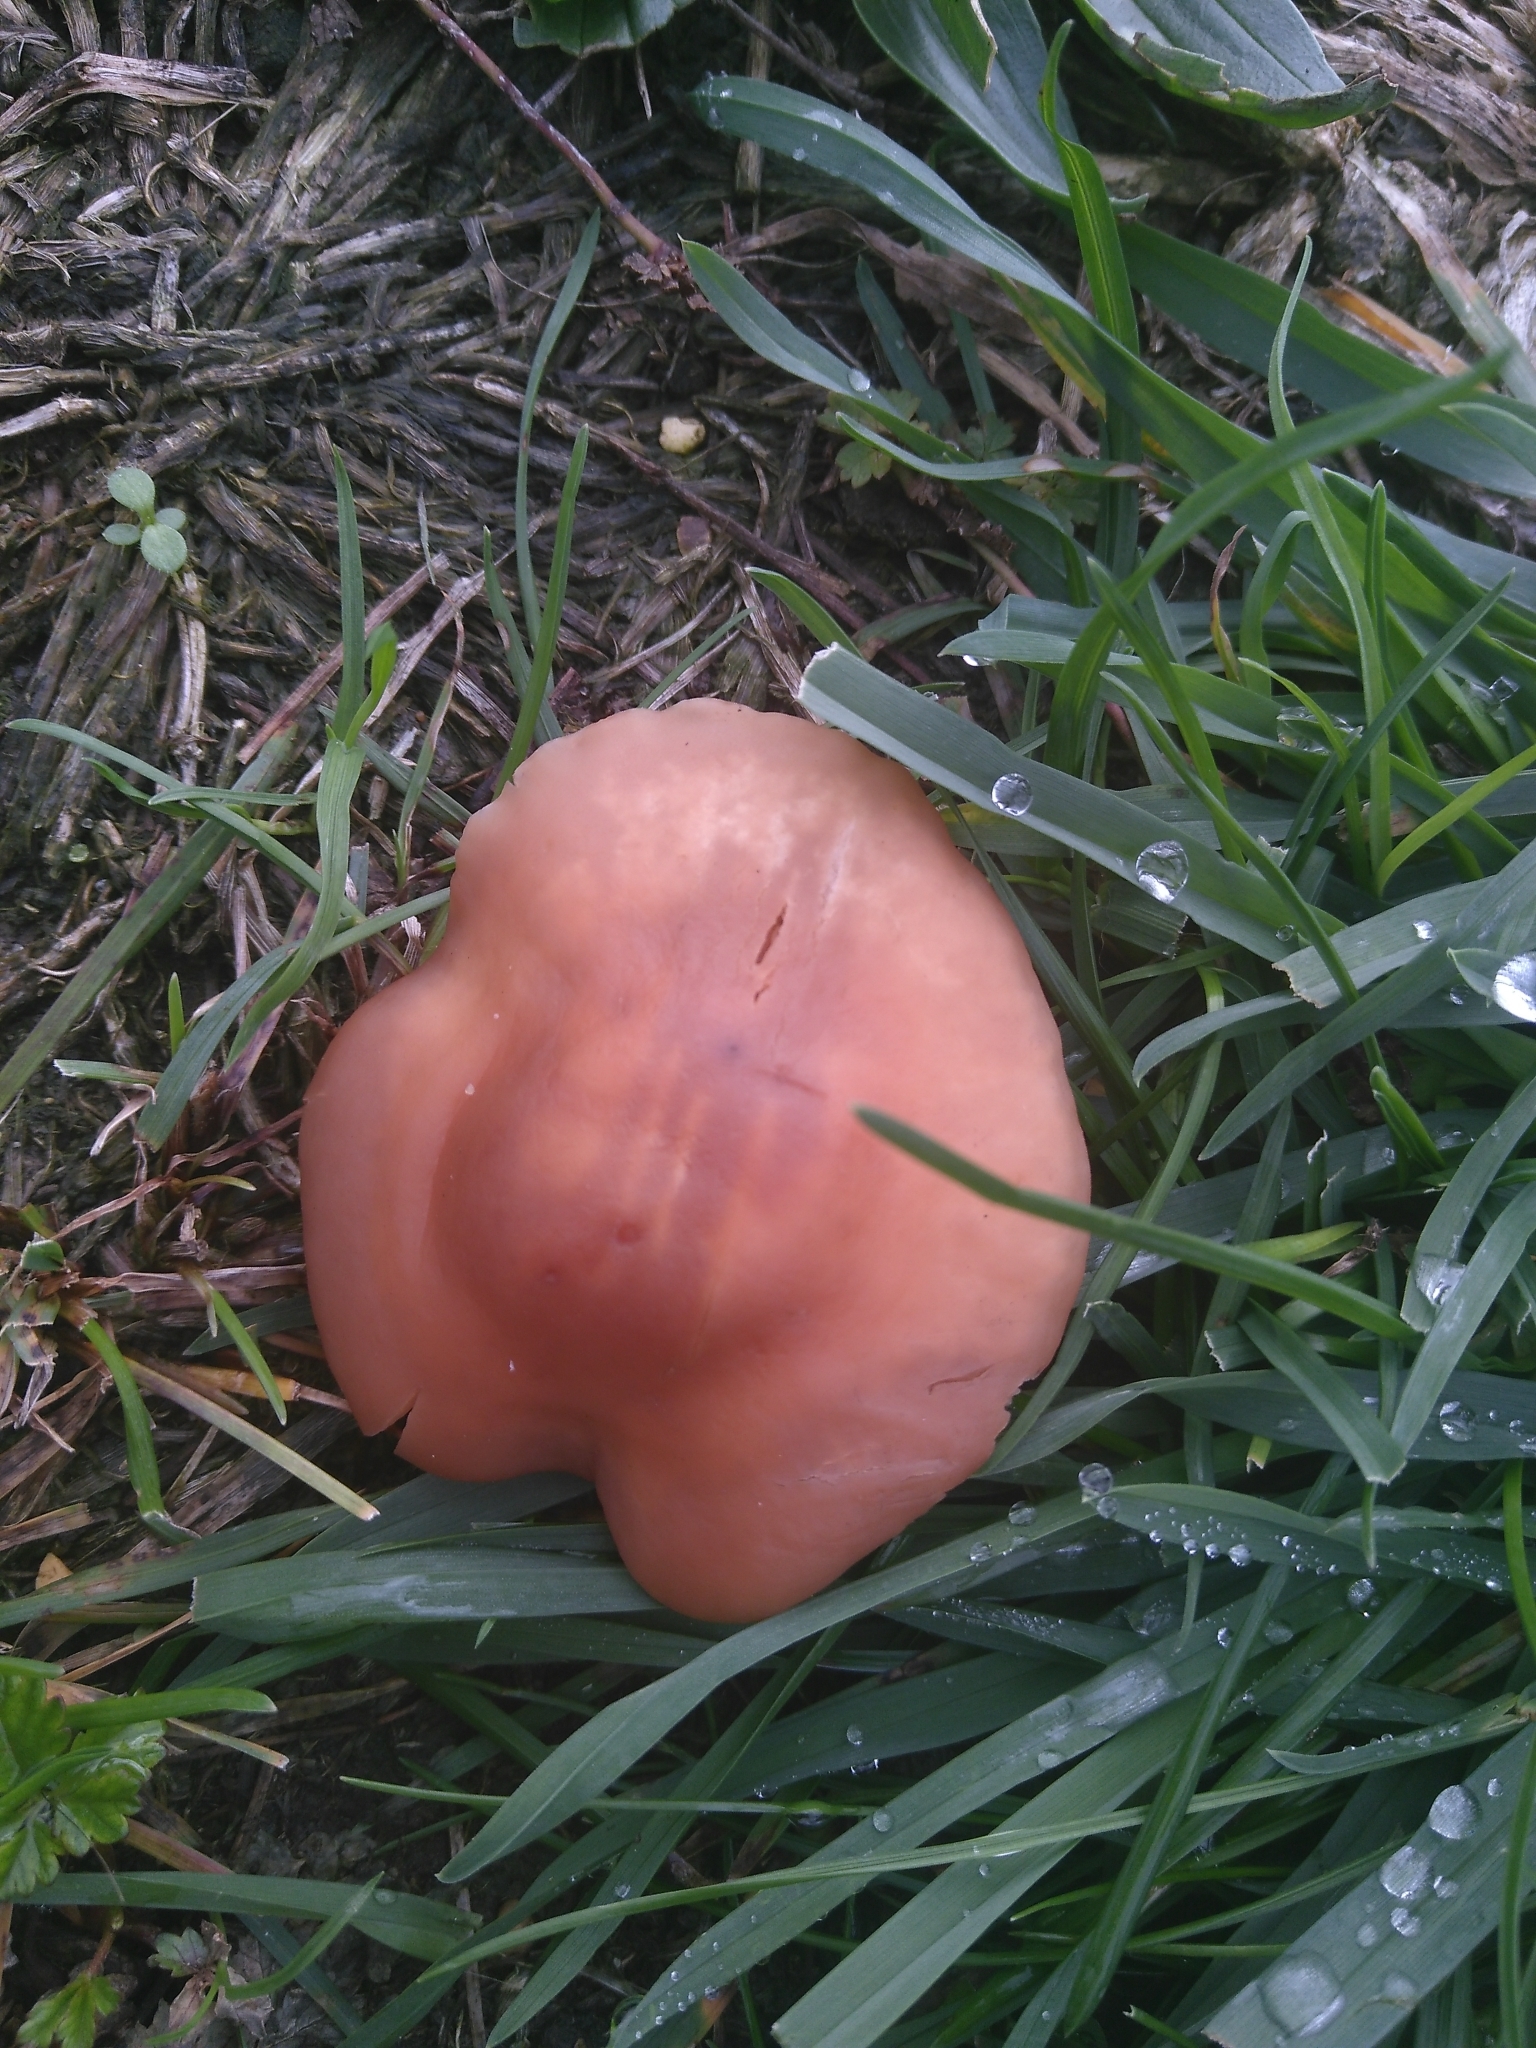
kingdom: Fungi
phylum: Basidiomycota
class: Agaricomycetes
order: Agaricales
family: Marasmiaceae
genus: Marasmius
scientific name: Marasmius oreades
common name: Fairy ring champignon
